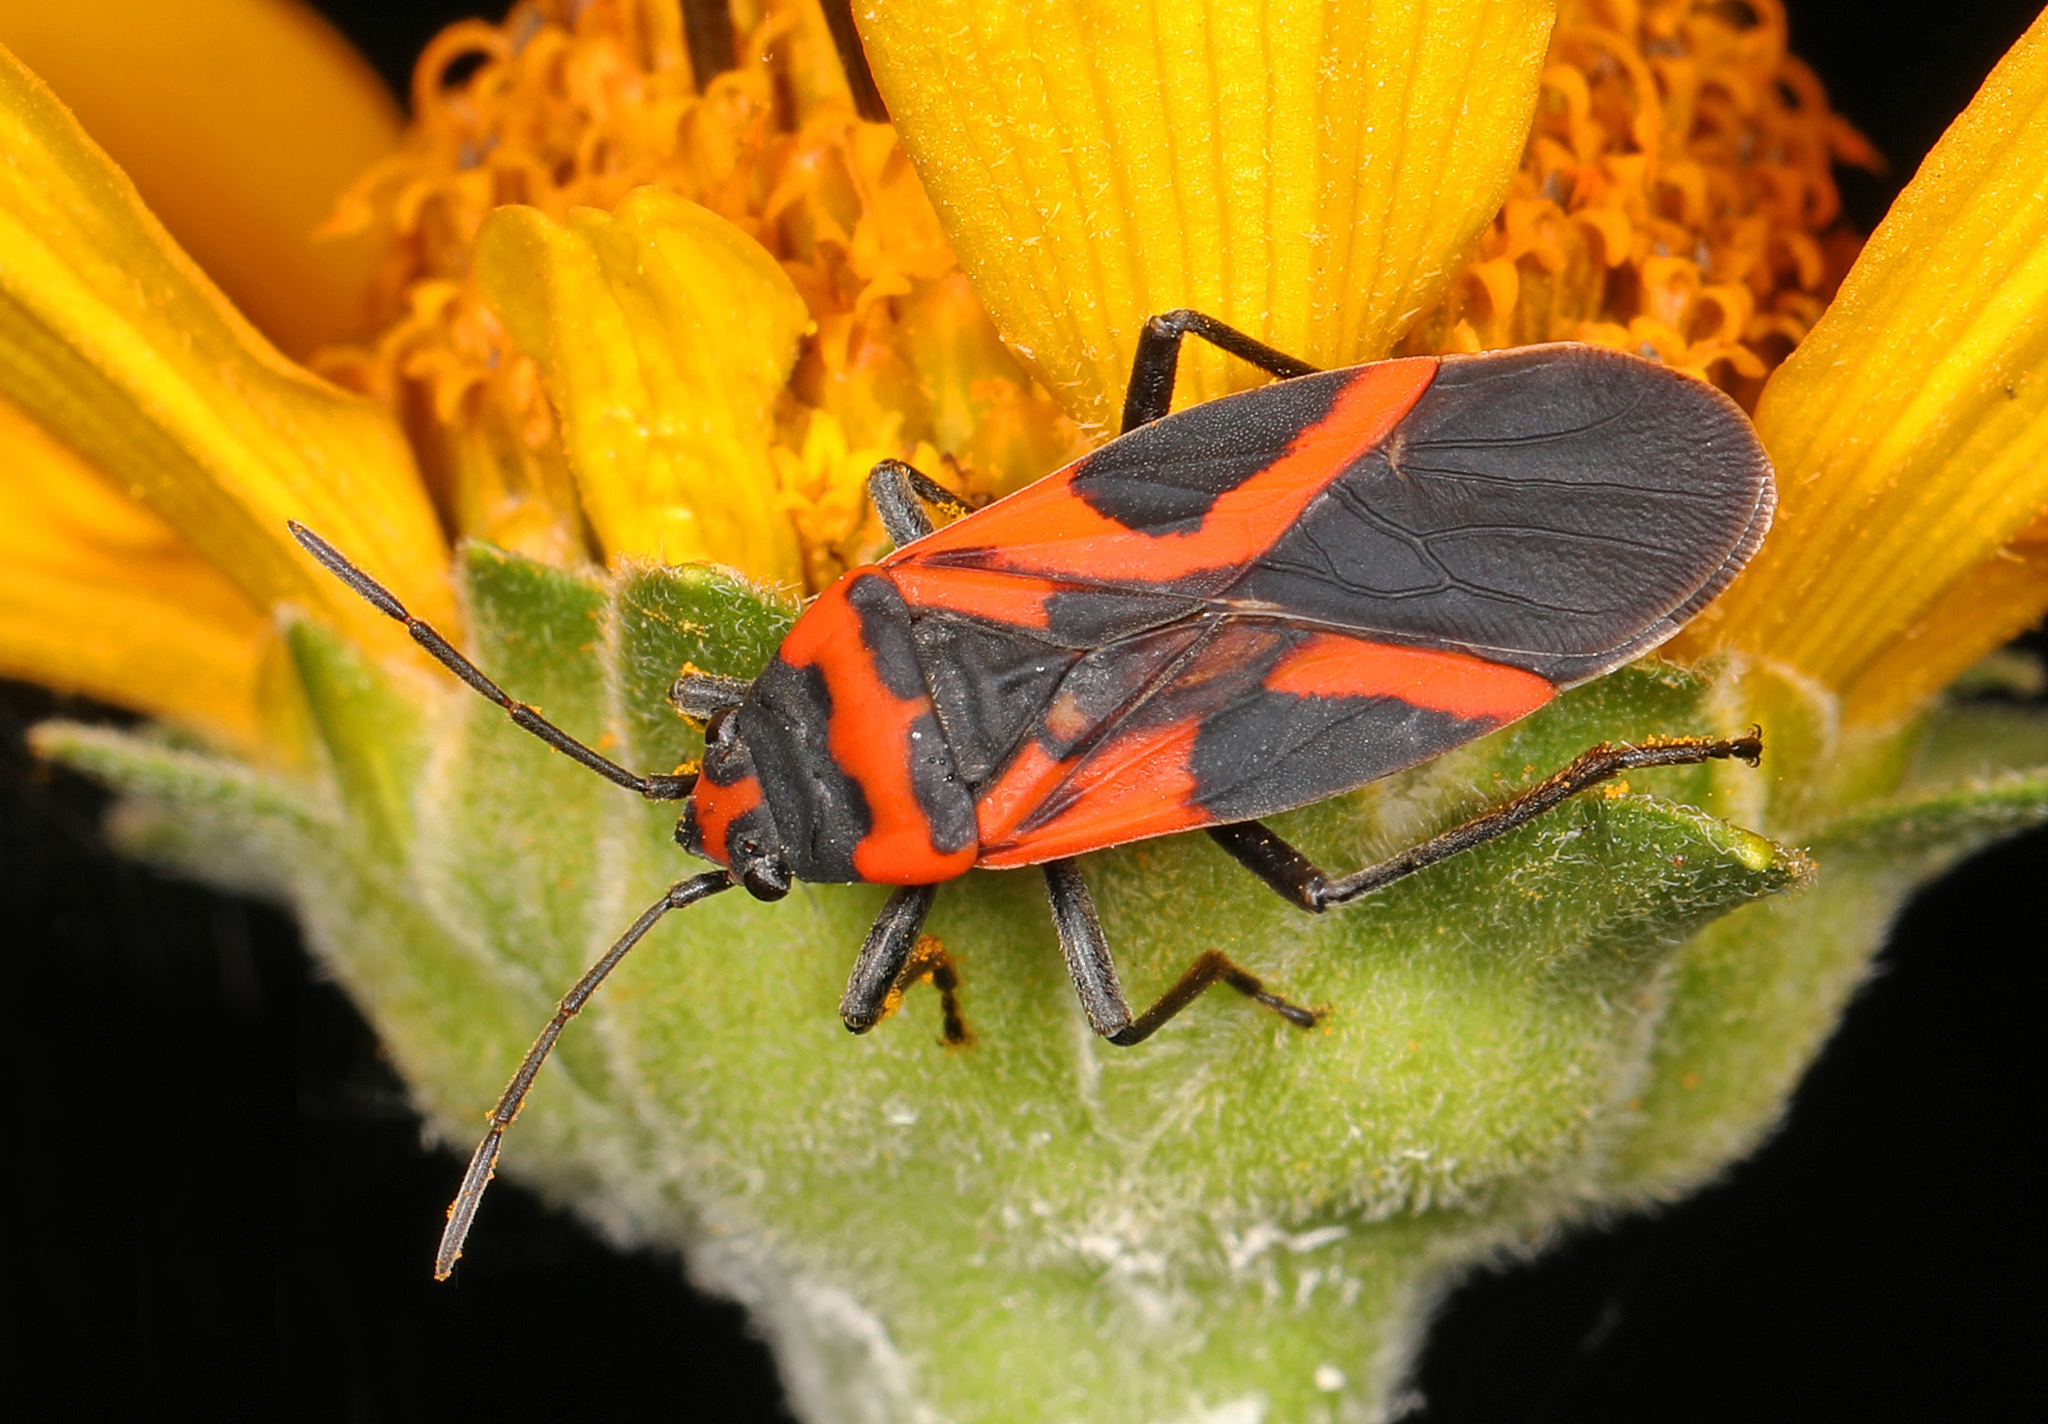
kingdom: Animalia
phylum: Arthropoda
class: Insecta
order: Hemiptera
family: Lygaeidae
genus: Lygaeus
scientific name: Lygaeus turcicus
